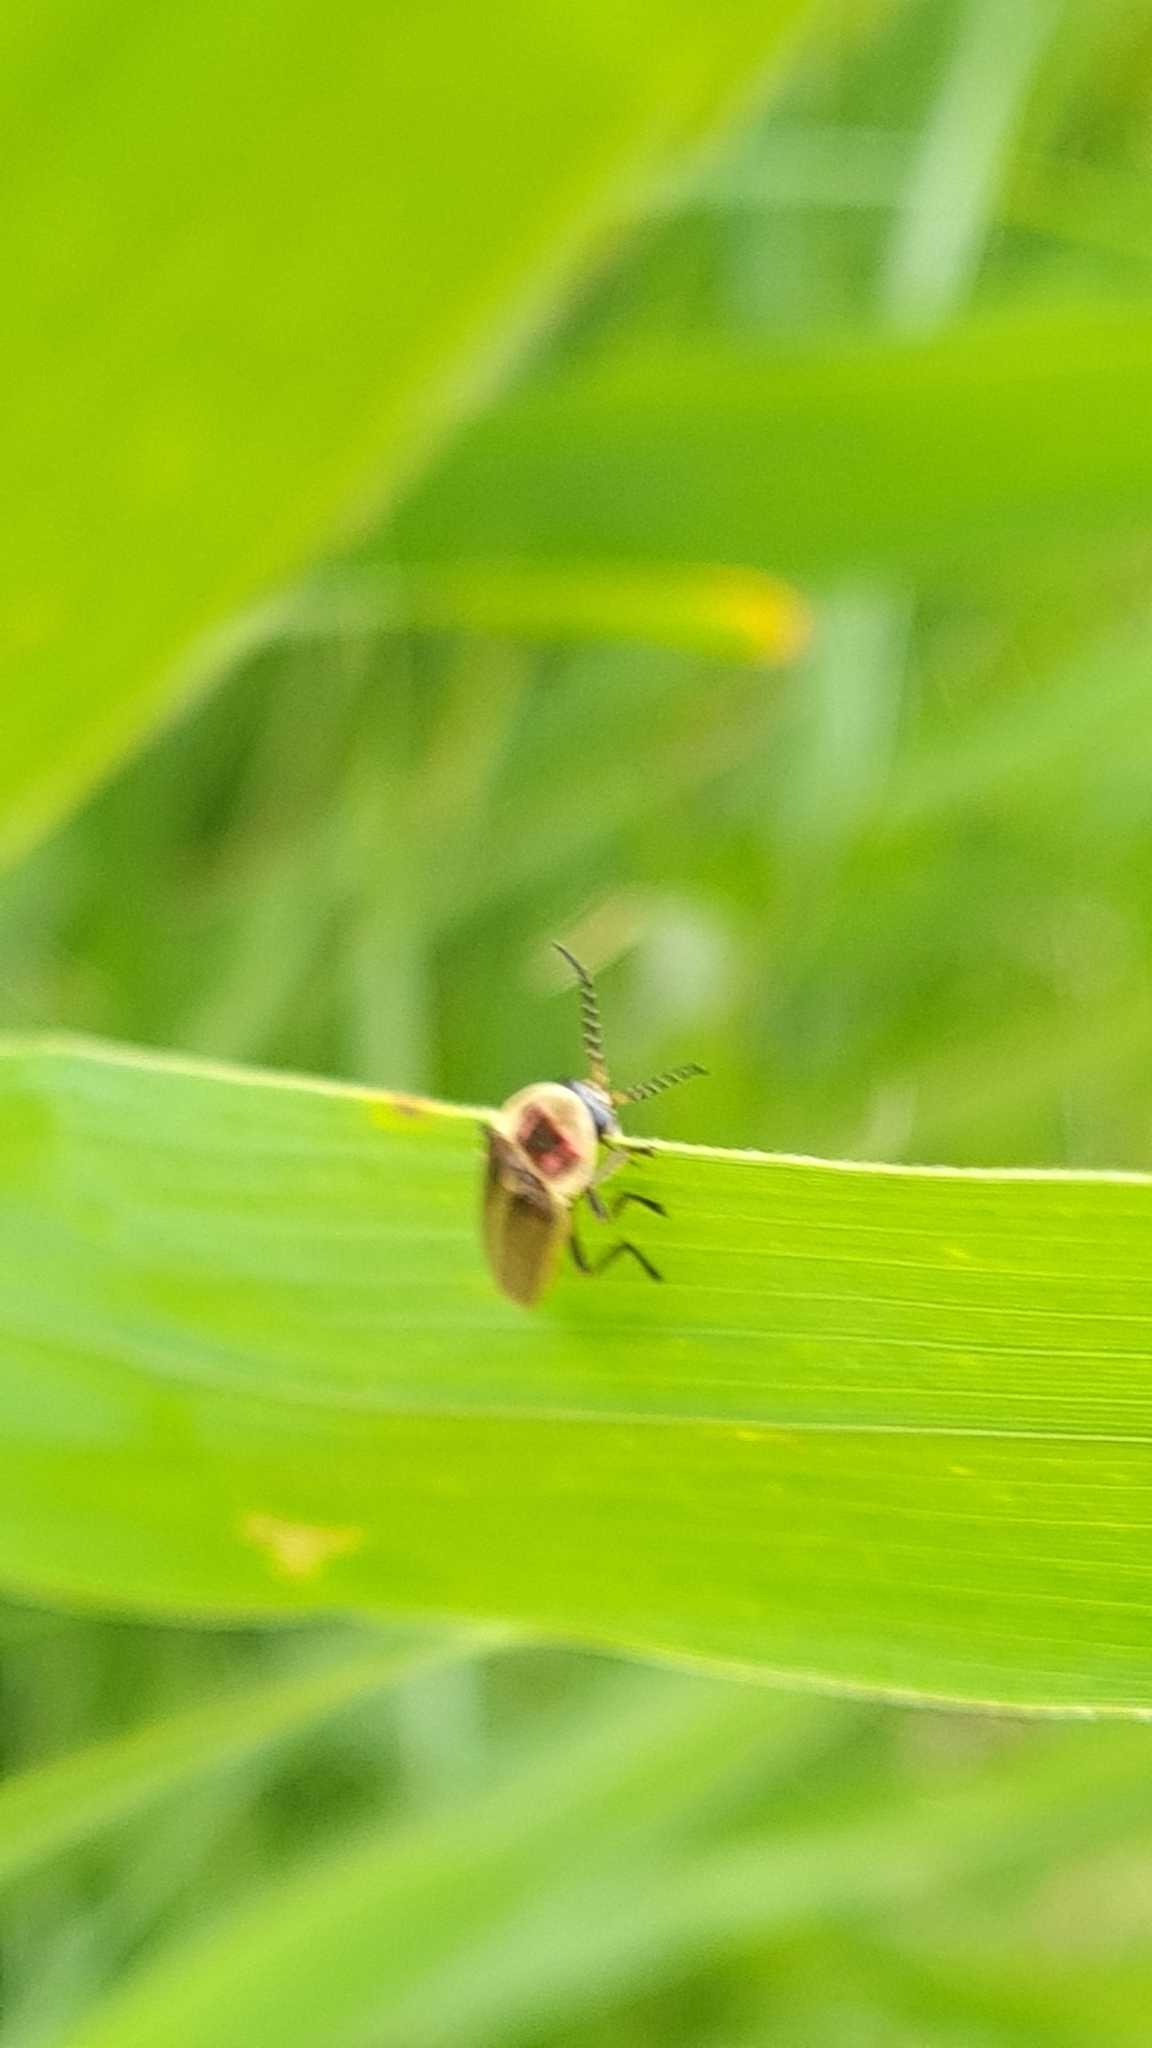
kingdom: Animalia
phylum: Arthropoda
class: Insecta
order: Coleoptera
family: Lampyridae
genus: Photinus
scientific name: Photinus signaticollis
